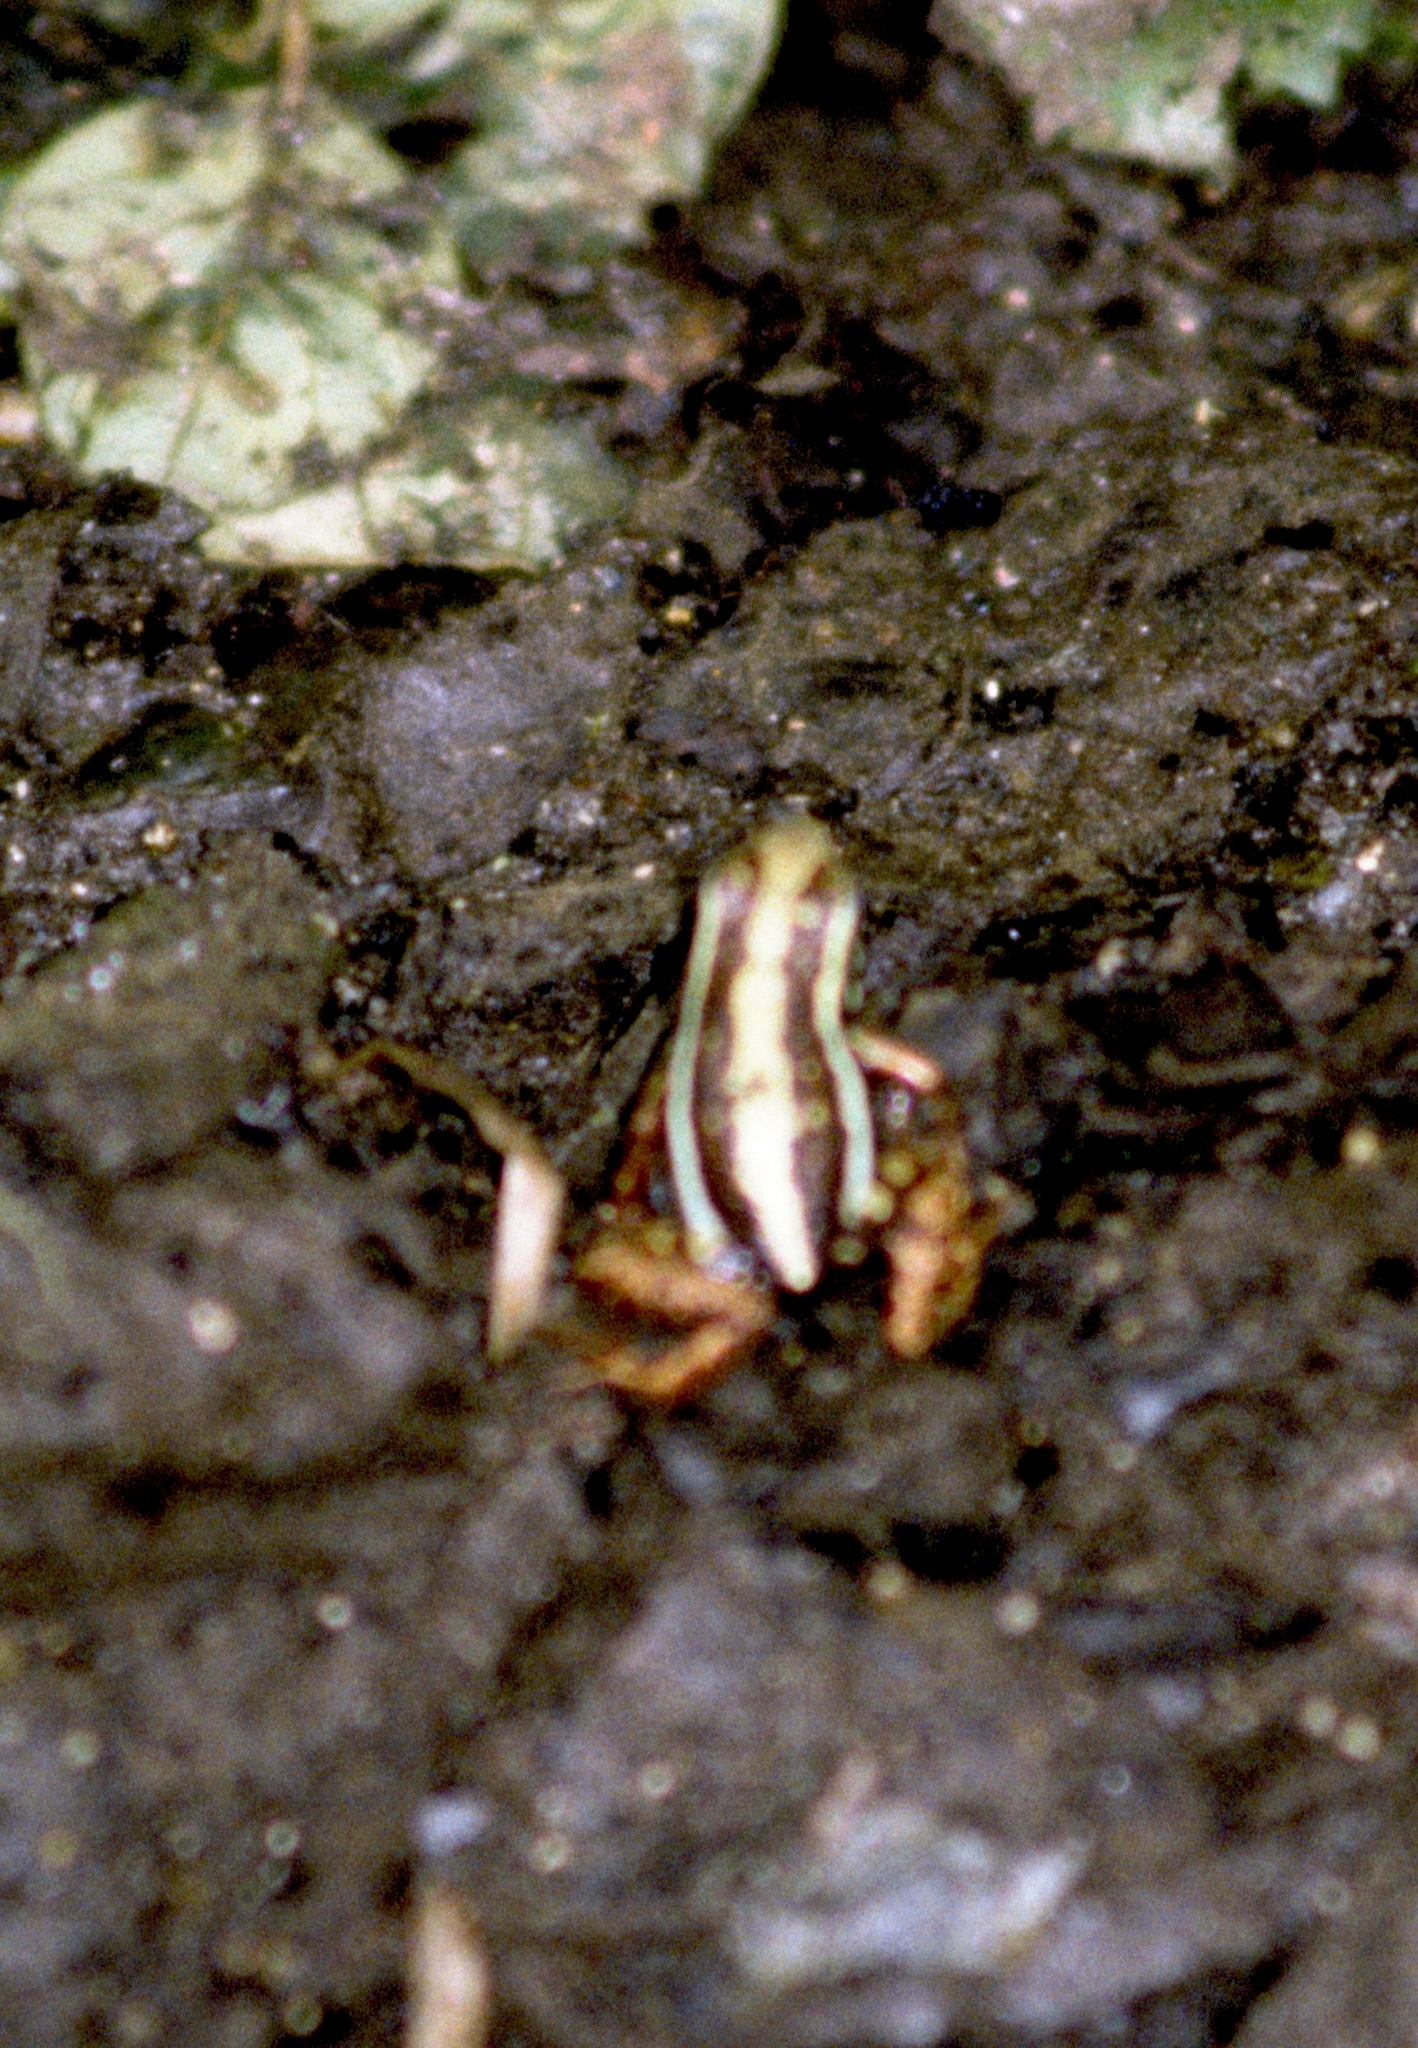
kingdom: Animalia
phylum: Chordata
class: Amphibia
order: Anura
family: Dendrobatidae
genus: Epipedobates
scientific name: Epipedobates anthonyi
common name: Anthony´s poison-arrow frog
